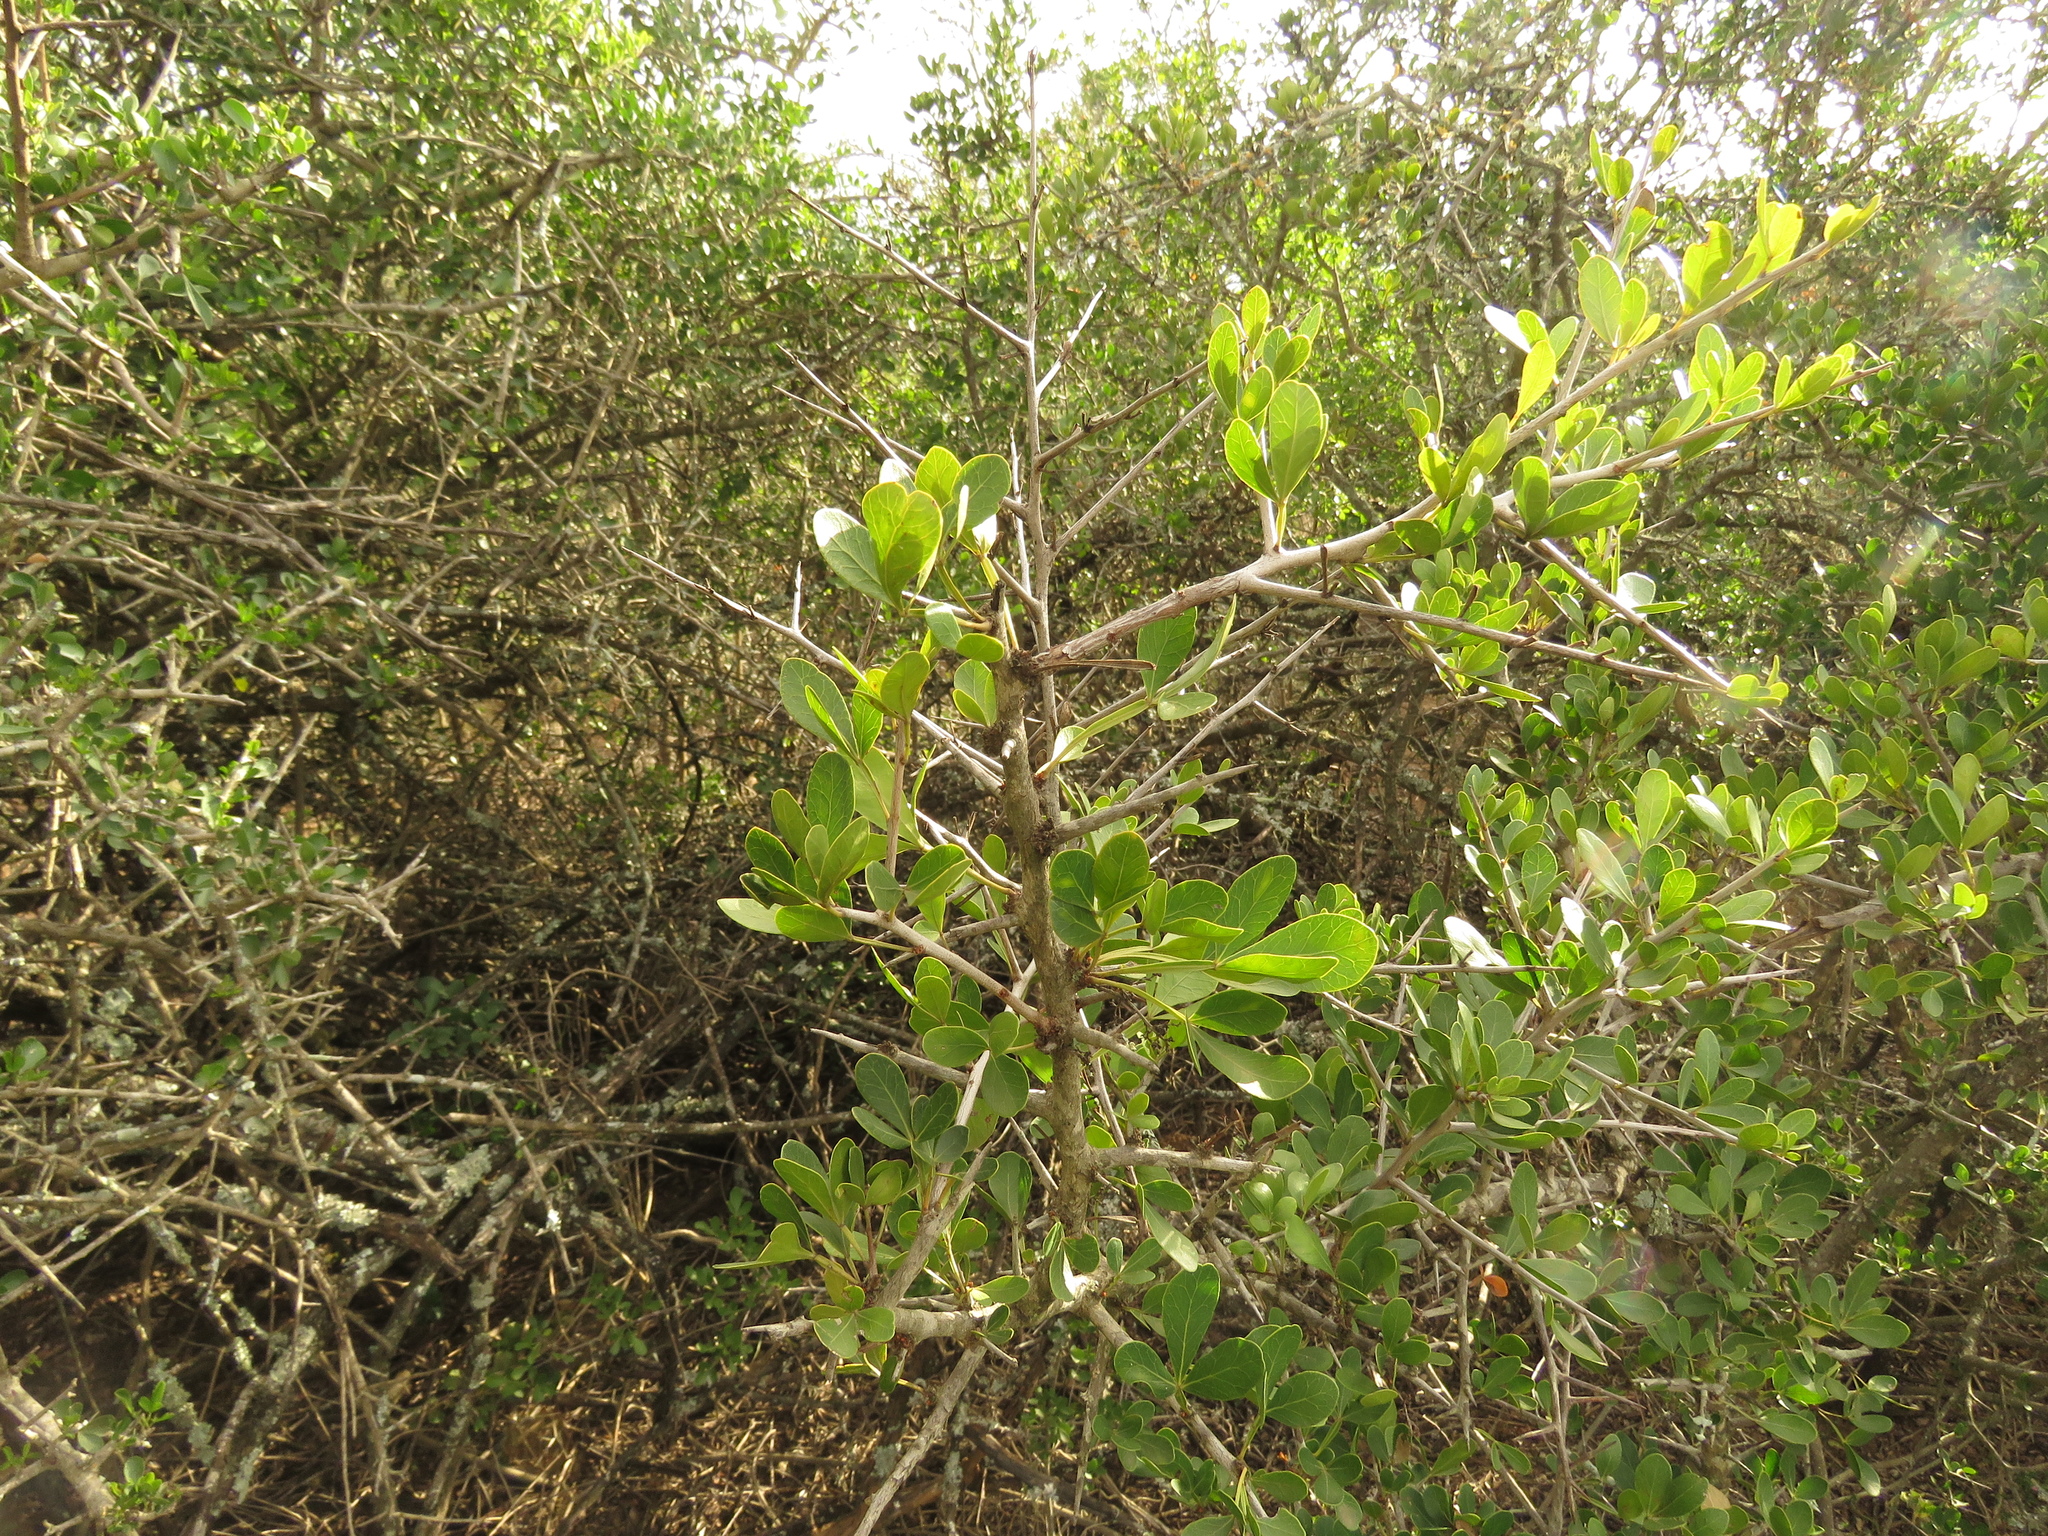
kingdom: Plantae
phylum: Tracheophyta
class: Magnoliopsida
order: Sapindales
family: Anacardiaceae
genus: Searsia
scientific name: Searsia pterota
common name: Winged currant
